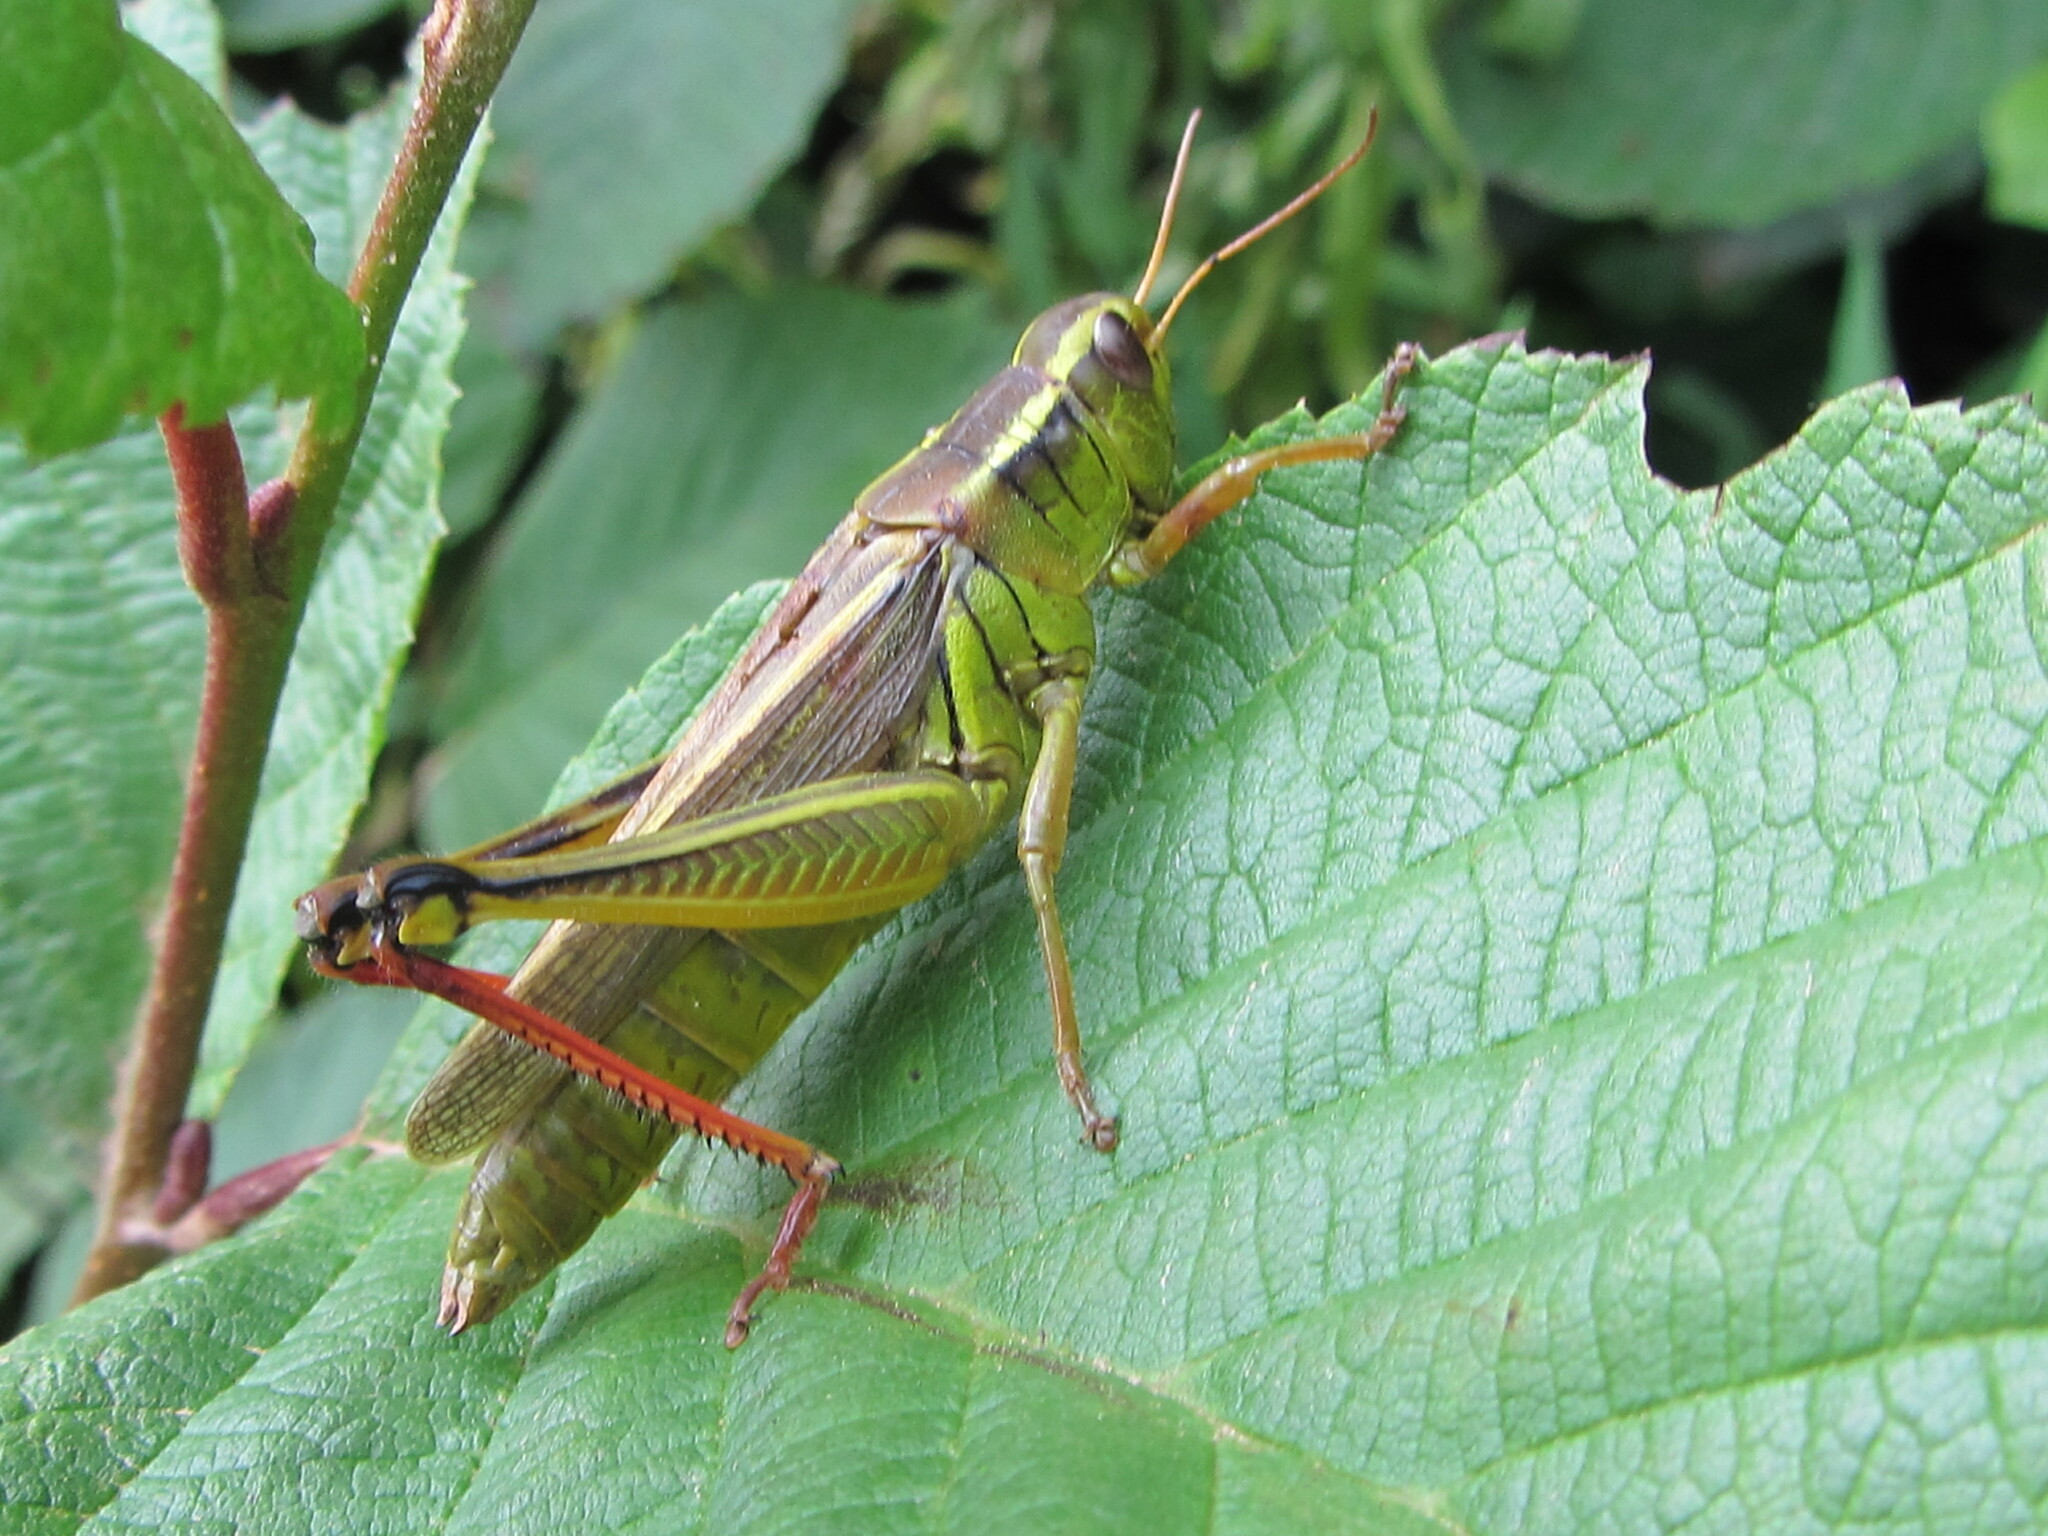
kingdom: Animalia
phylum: Arthropoda
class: Insecta
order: Orthoptera
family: Acrididae
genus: Melanoplus
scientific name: Melanoplus bivittatus
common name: Two-striped grasshopper
